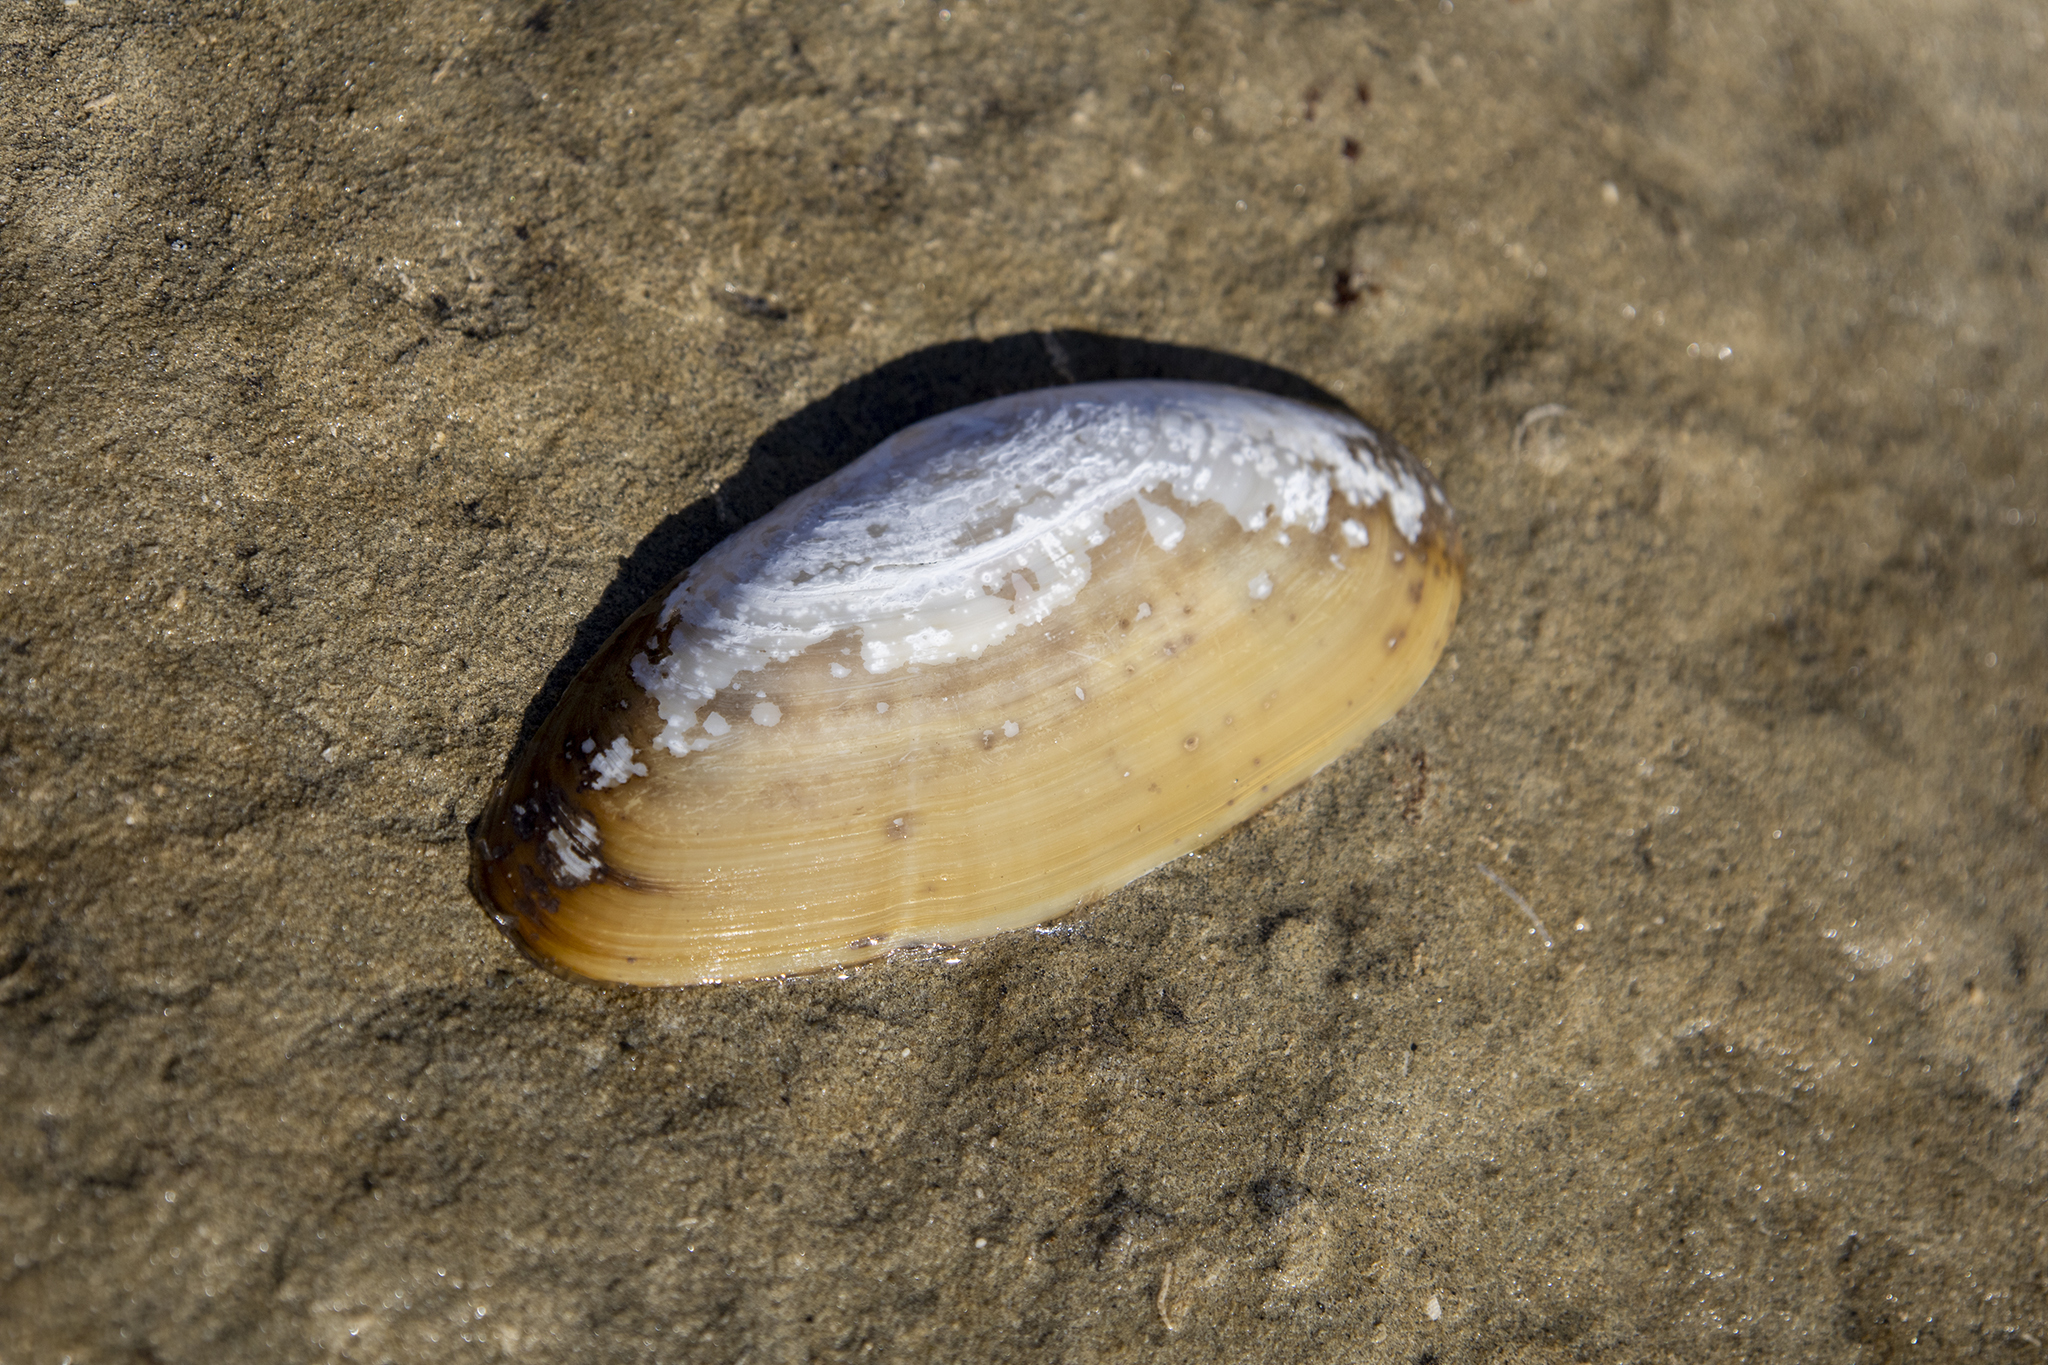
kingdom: Animalia
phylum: Mollusca
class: Bivalvia
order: Venerida
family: Mactridae
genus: Resania
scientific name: Resania lanceolata
